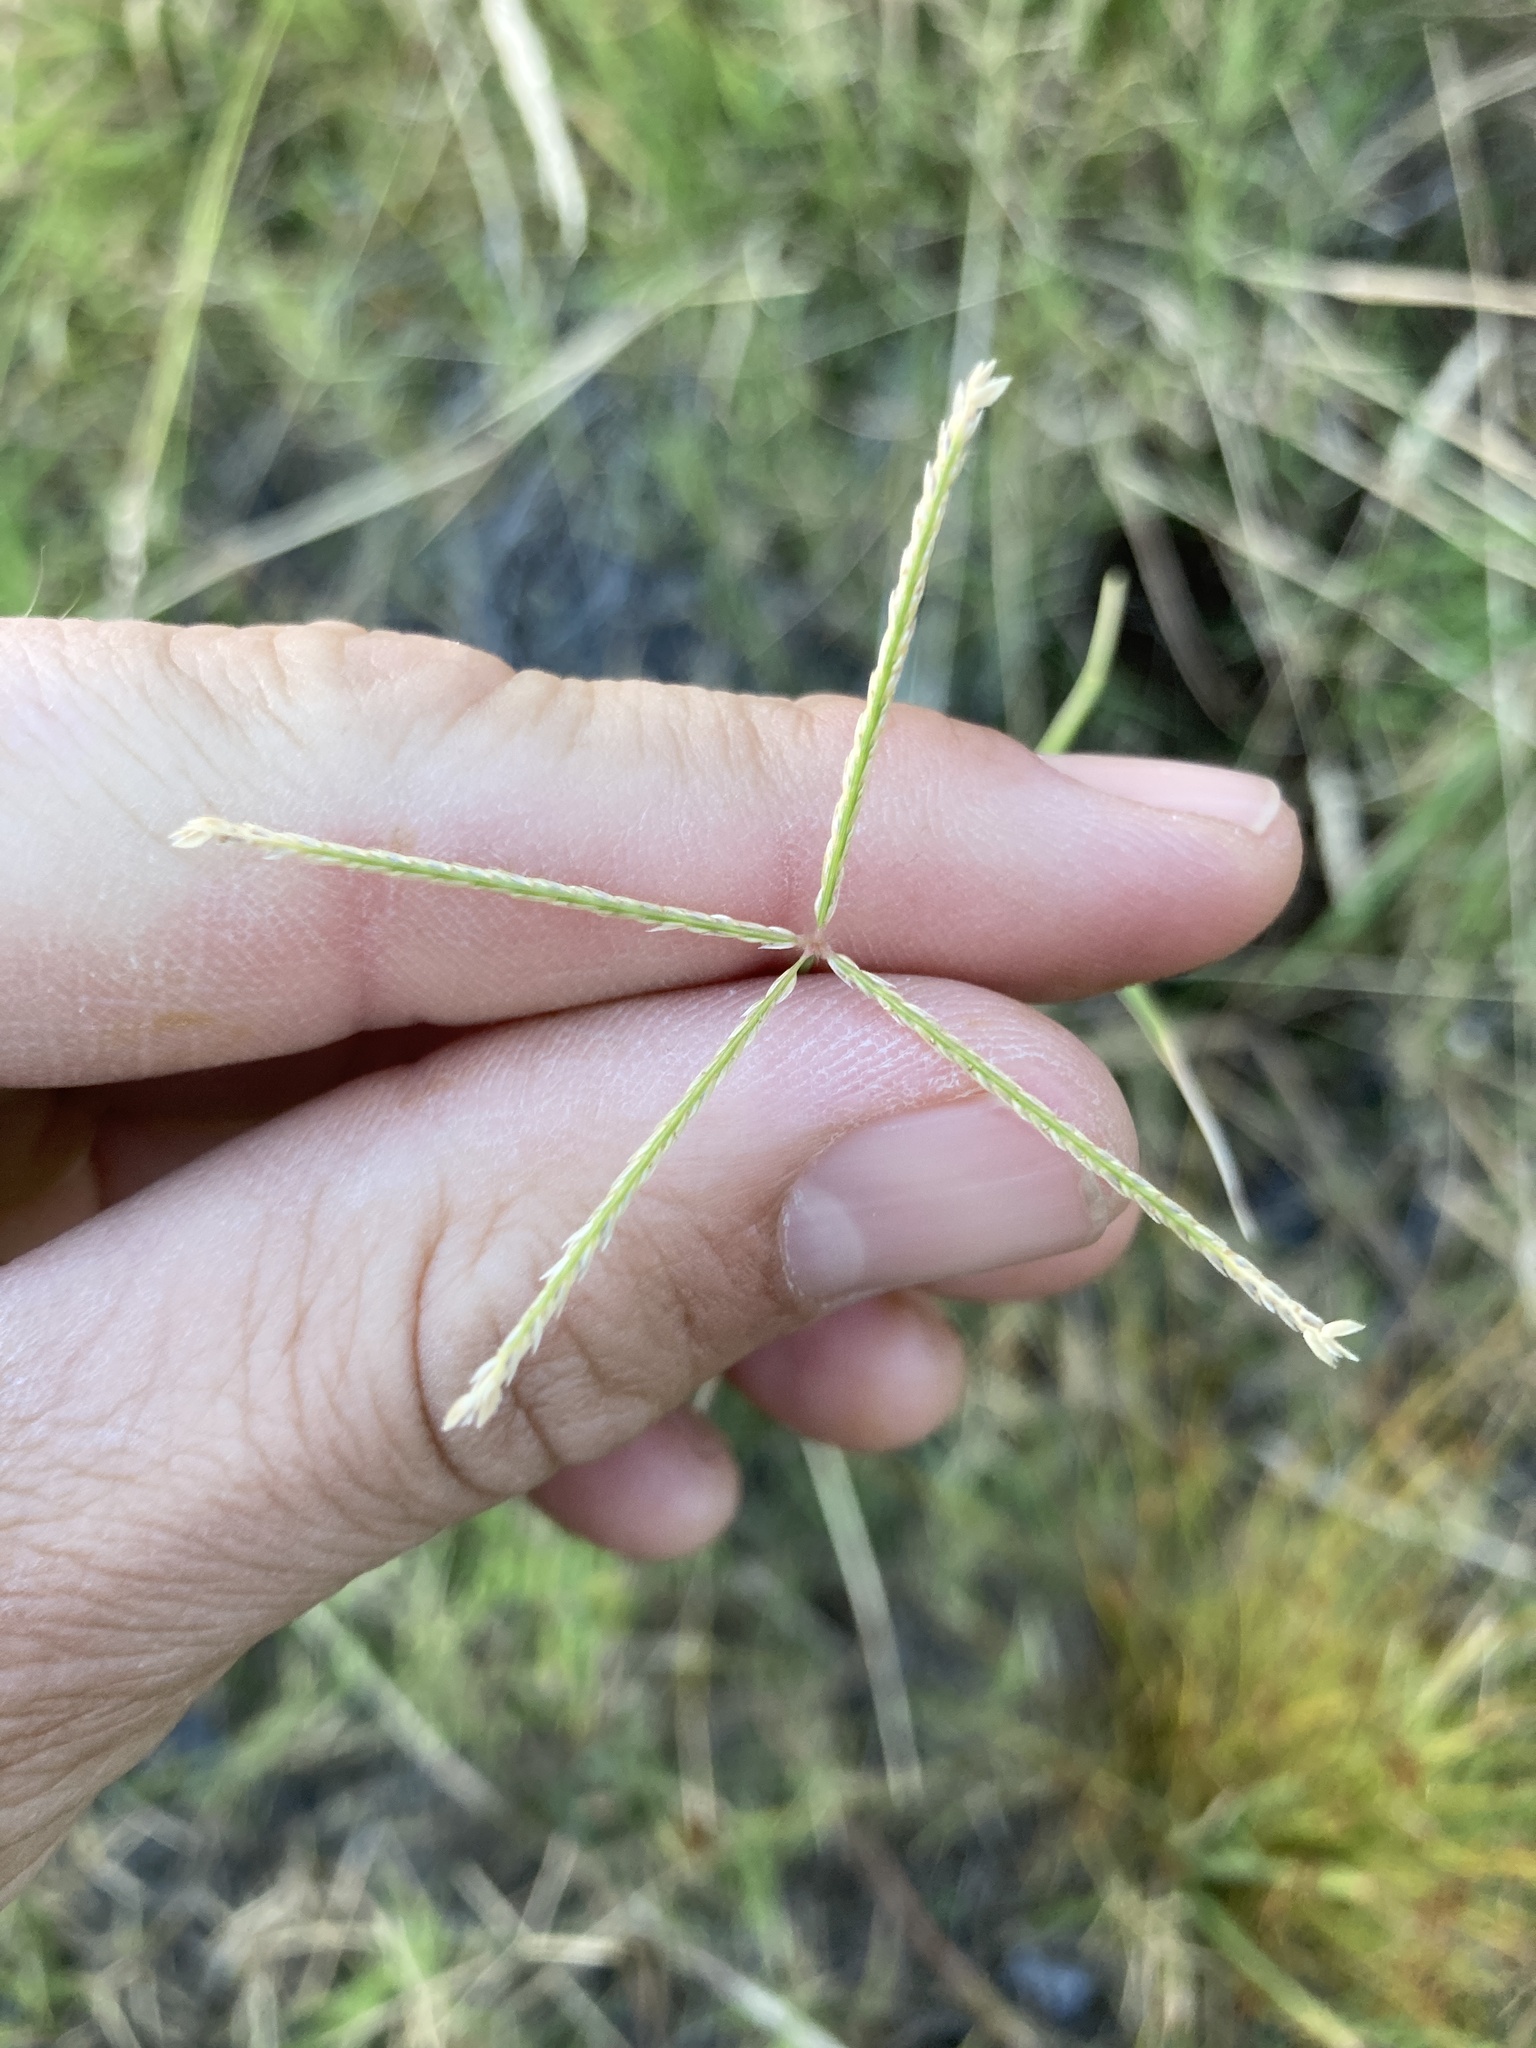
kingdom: Plantae
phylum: Tracheophyta
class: Liliopsida
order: Poales
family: Poaceae
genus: Cynodon
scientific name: Cynodon dactylon
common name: Bermuda grass
